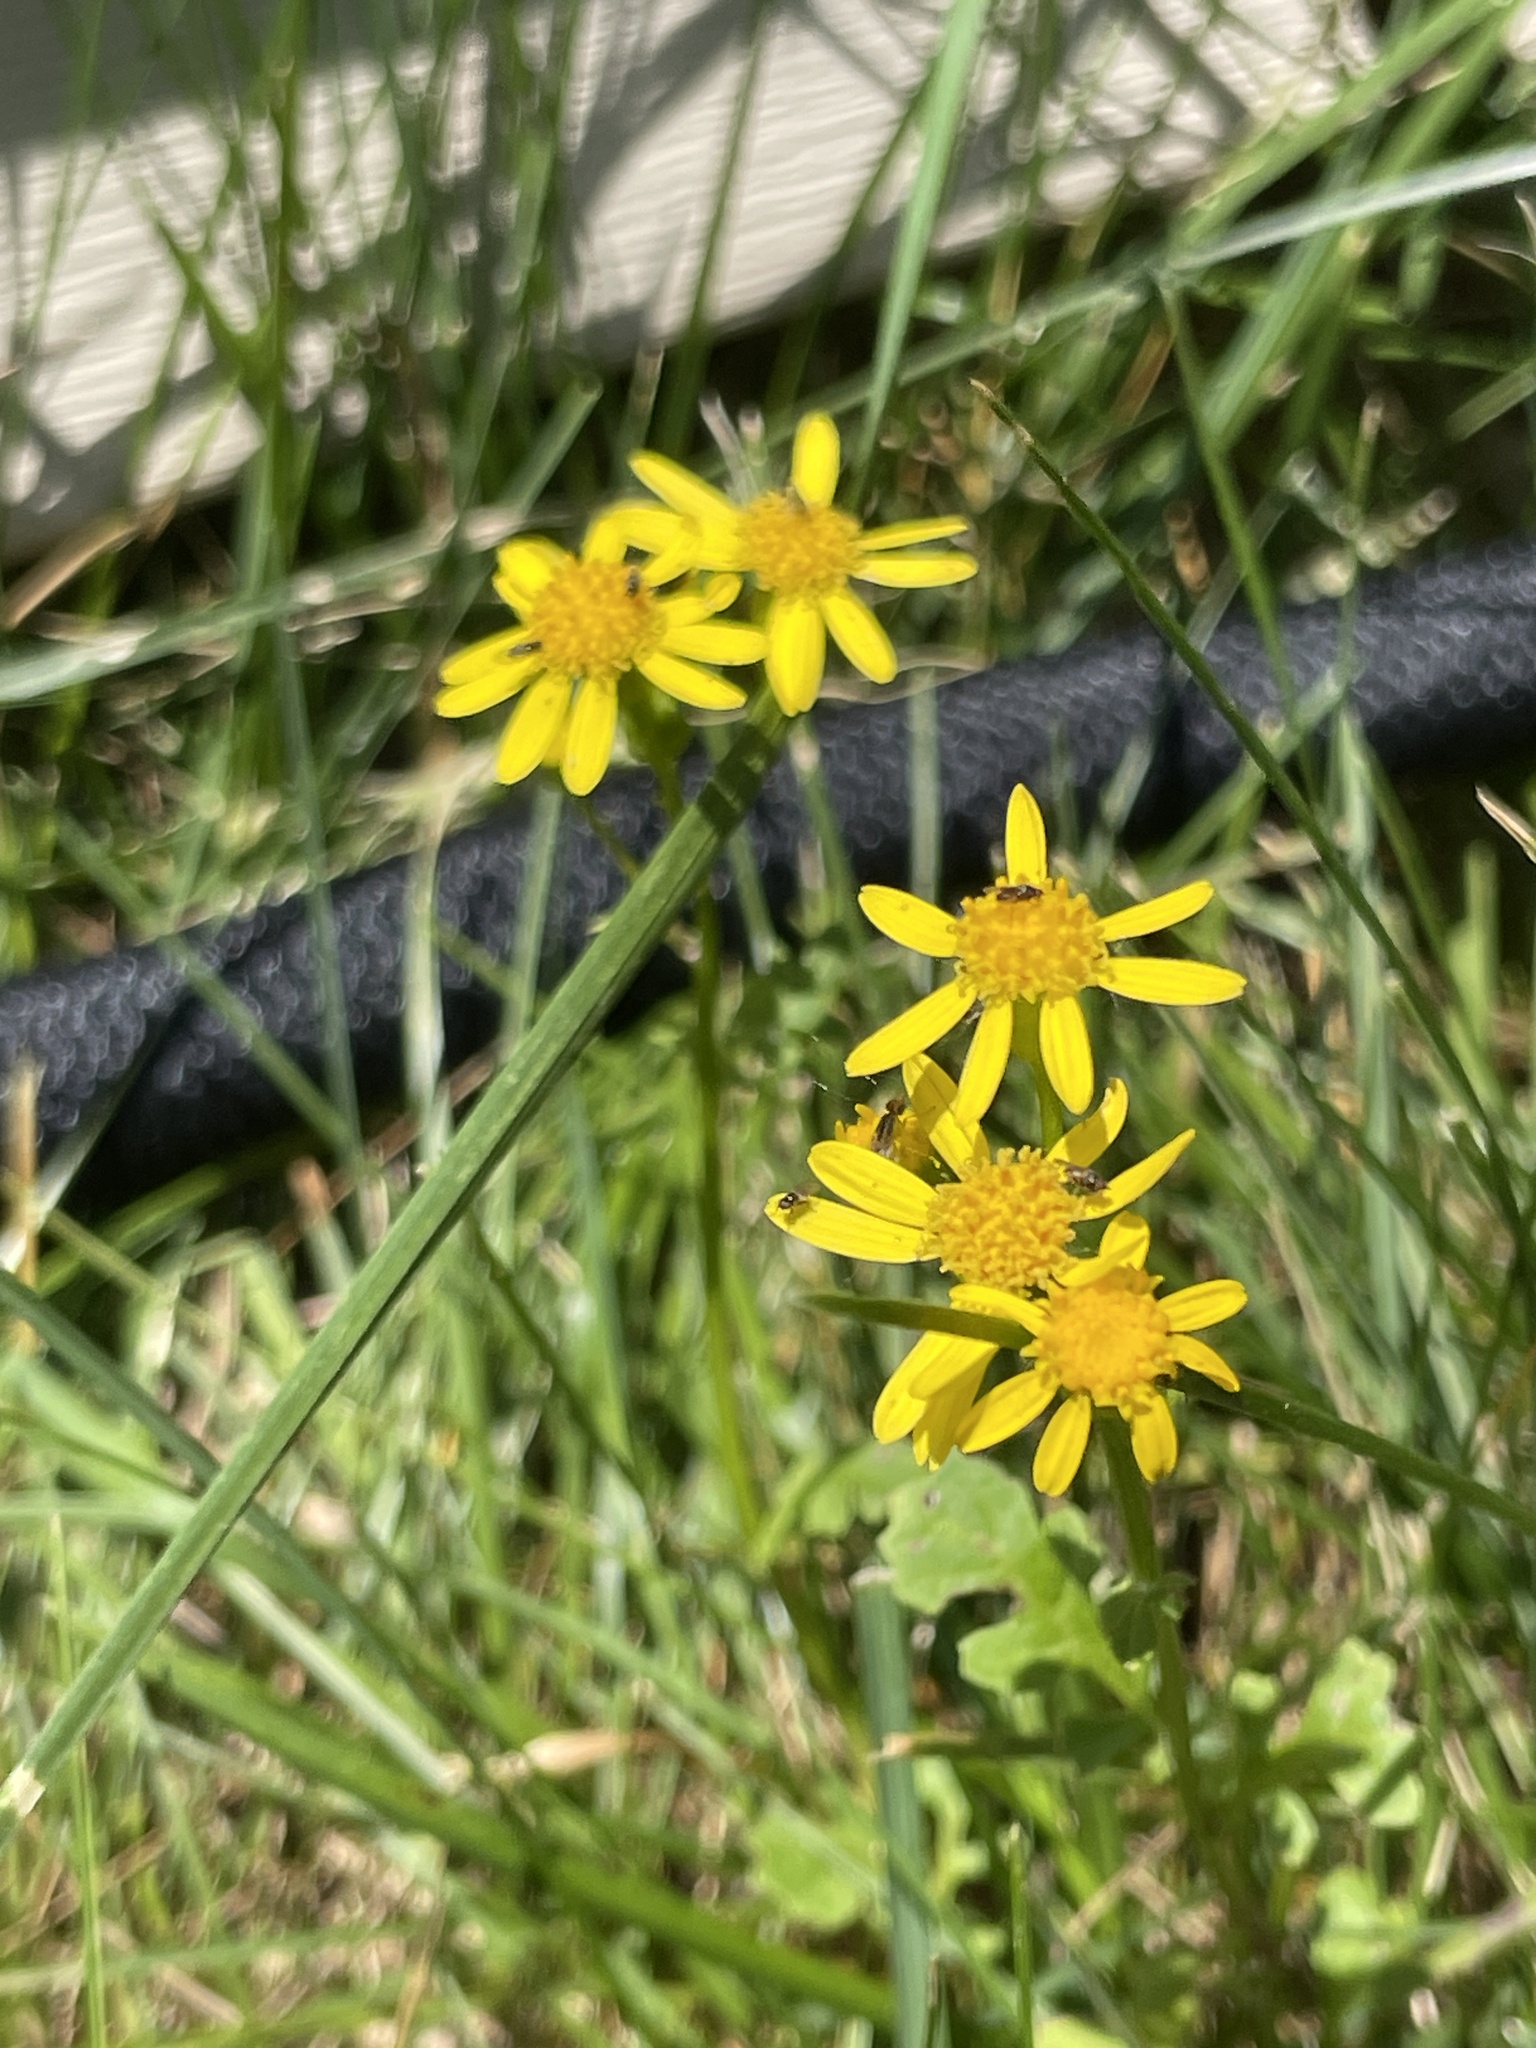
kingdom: Plantae
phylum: Tracheophyta
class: Magnoliopsida
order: Asterales
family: Asteraceae
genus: Packera
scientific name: Packera glabella
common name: Butterweed
